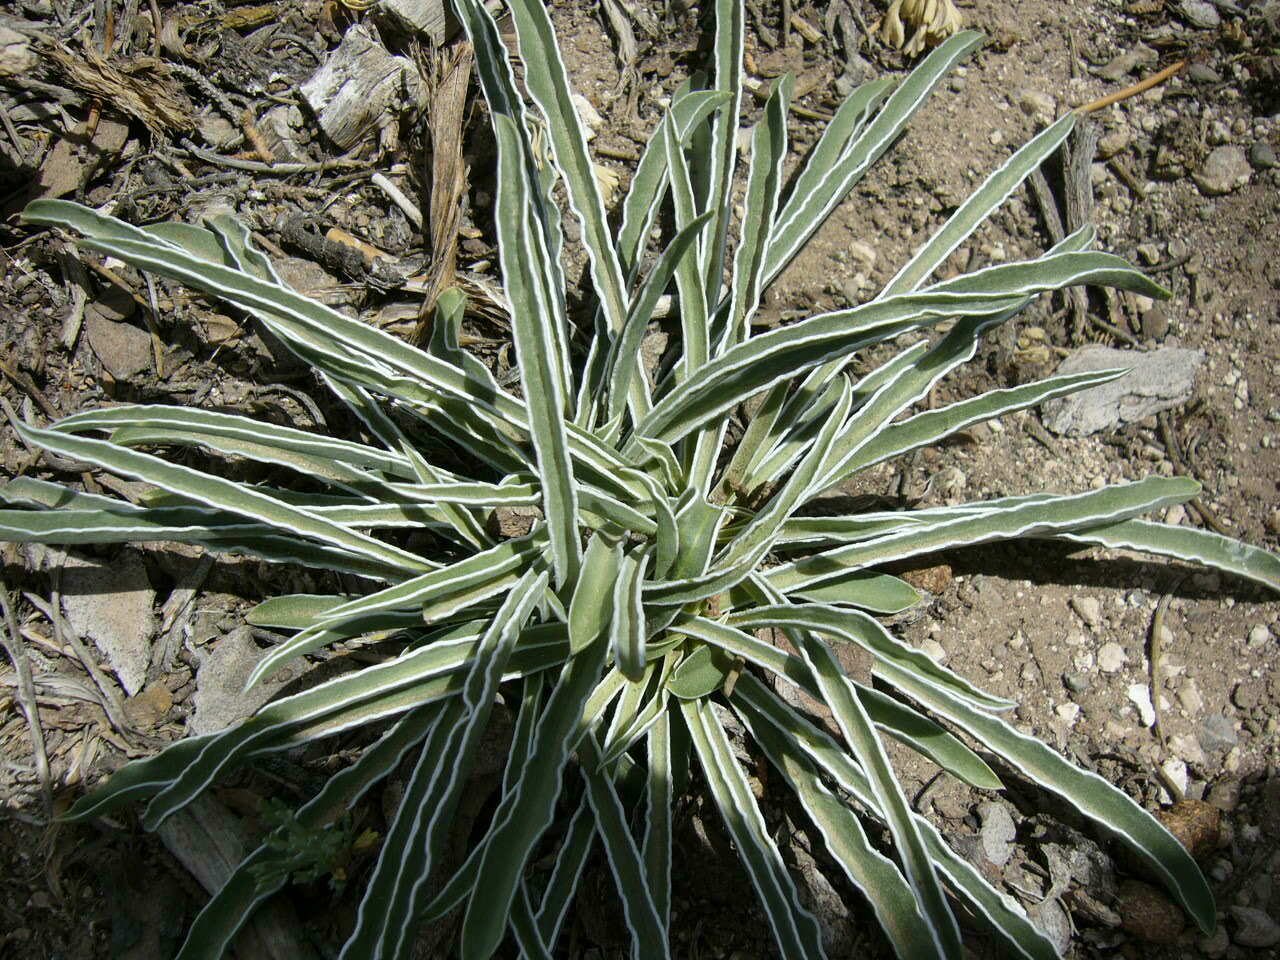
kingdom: Plantae
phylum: Tracheophyta
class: Magnoliopsida
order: Gentianales
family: Gentianaceae
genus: Frasera
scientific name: Frasera albomarginata
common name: Desert frasera
